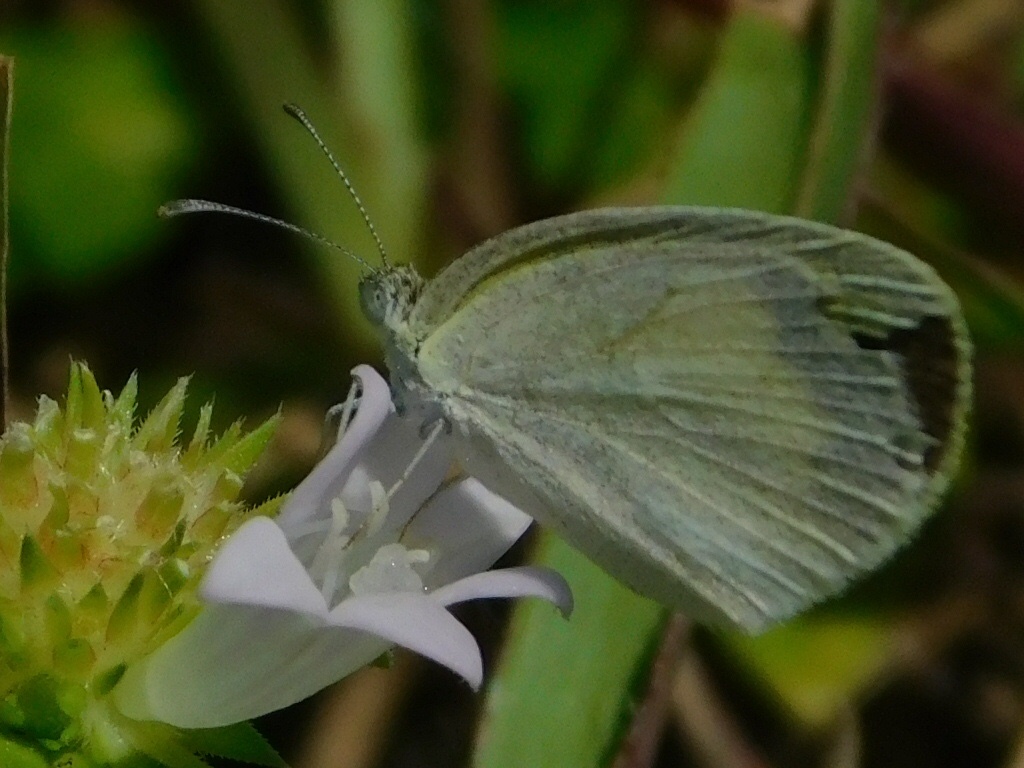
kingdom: Animalia
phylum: Arthropoda
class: Insecta
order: Lepidoptera
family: Pieridae
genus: Eurema
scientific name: Eurema daira
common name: Barred sulphur
